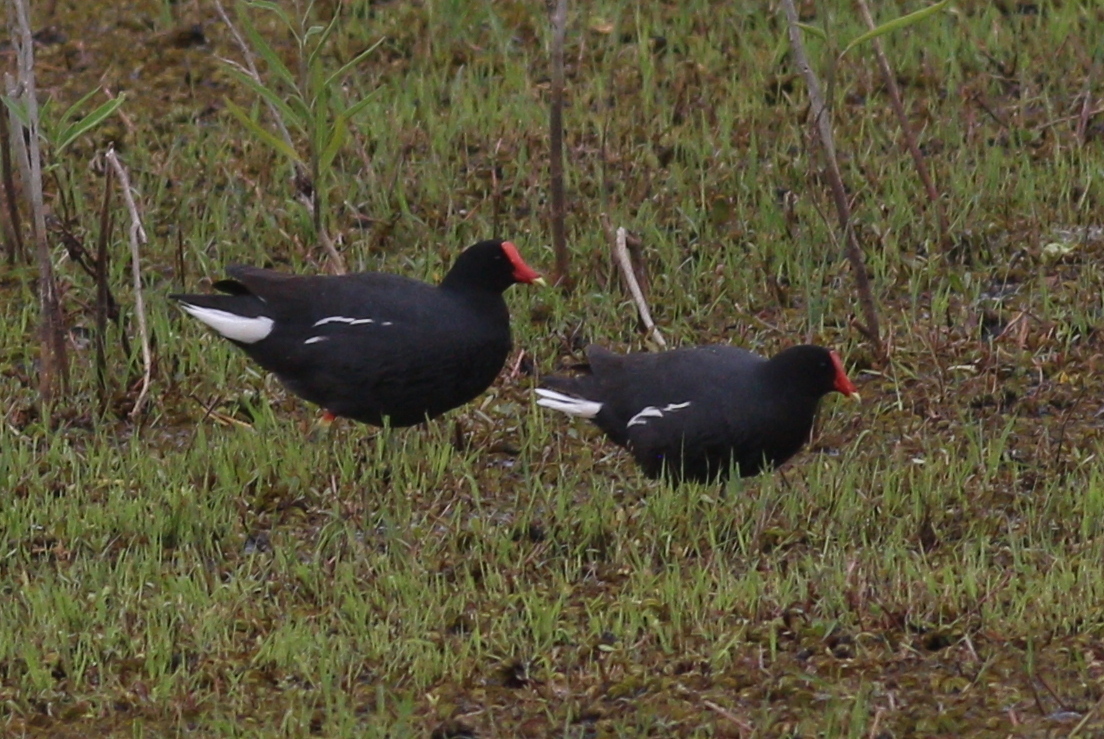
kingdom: Animalia
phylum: Chordata
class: Aves
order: Gruiformes
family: Rallidae
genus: Gallinula
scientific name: Gallinula chloropus
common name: Common moorhen
